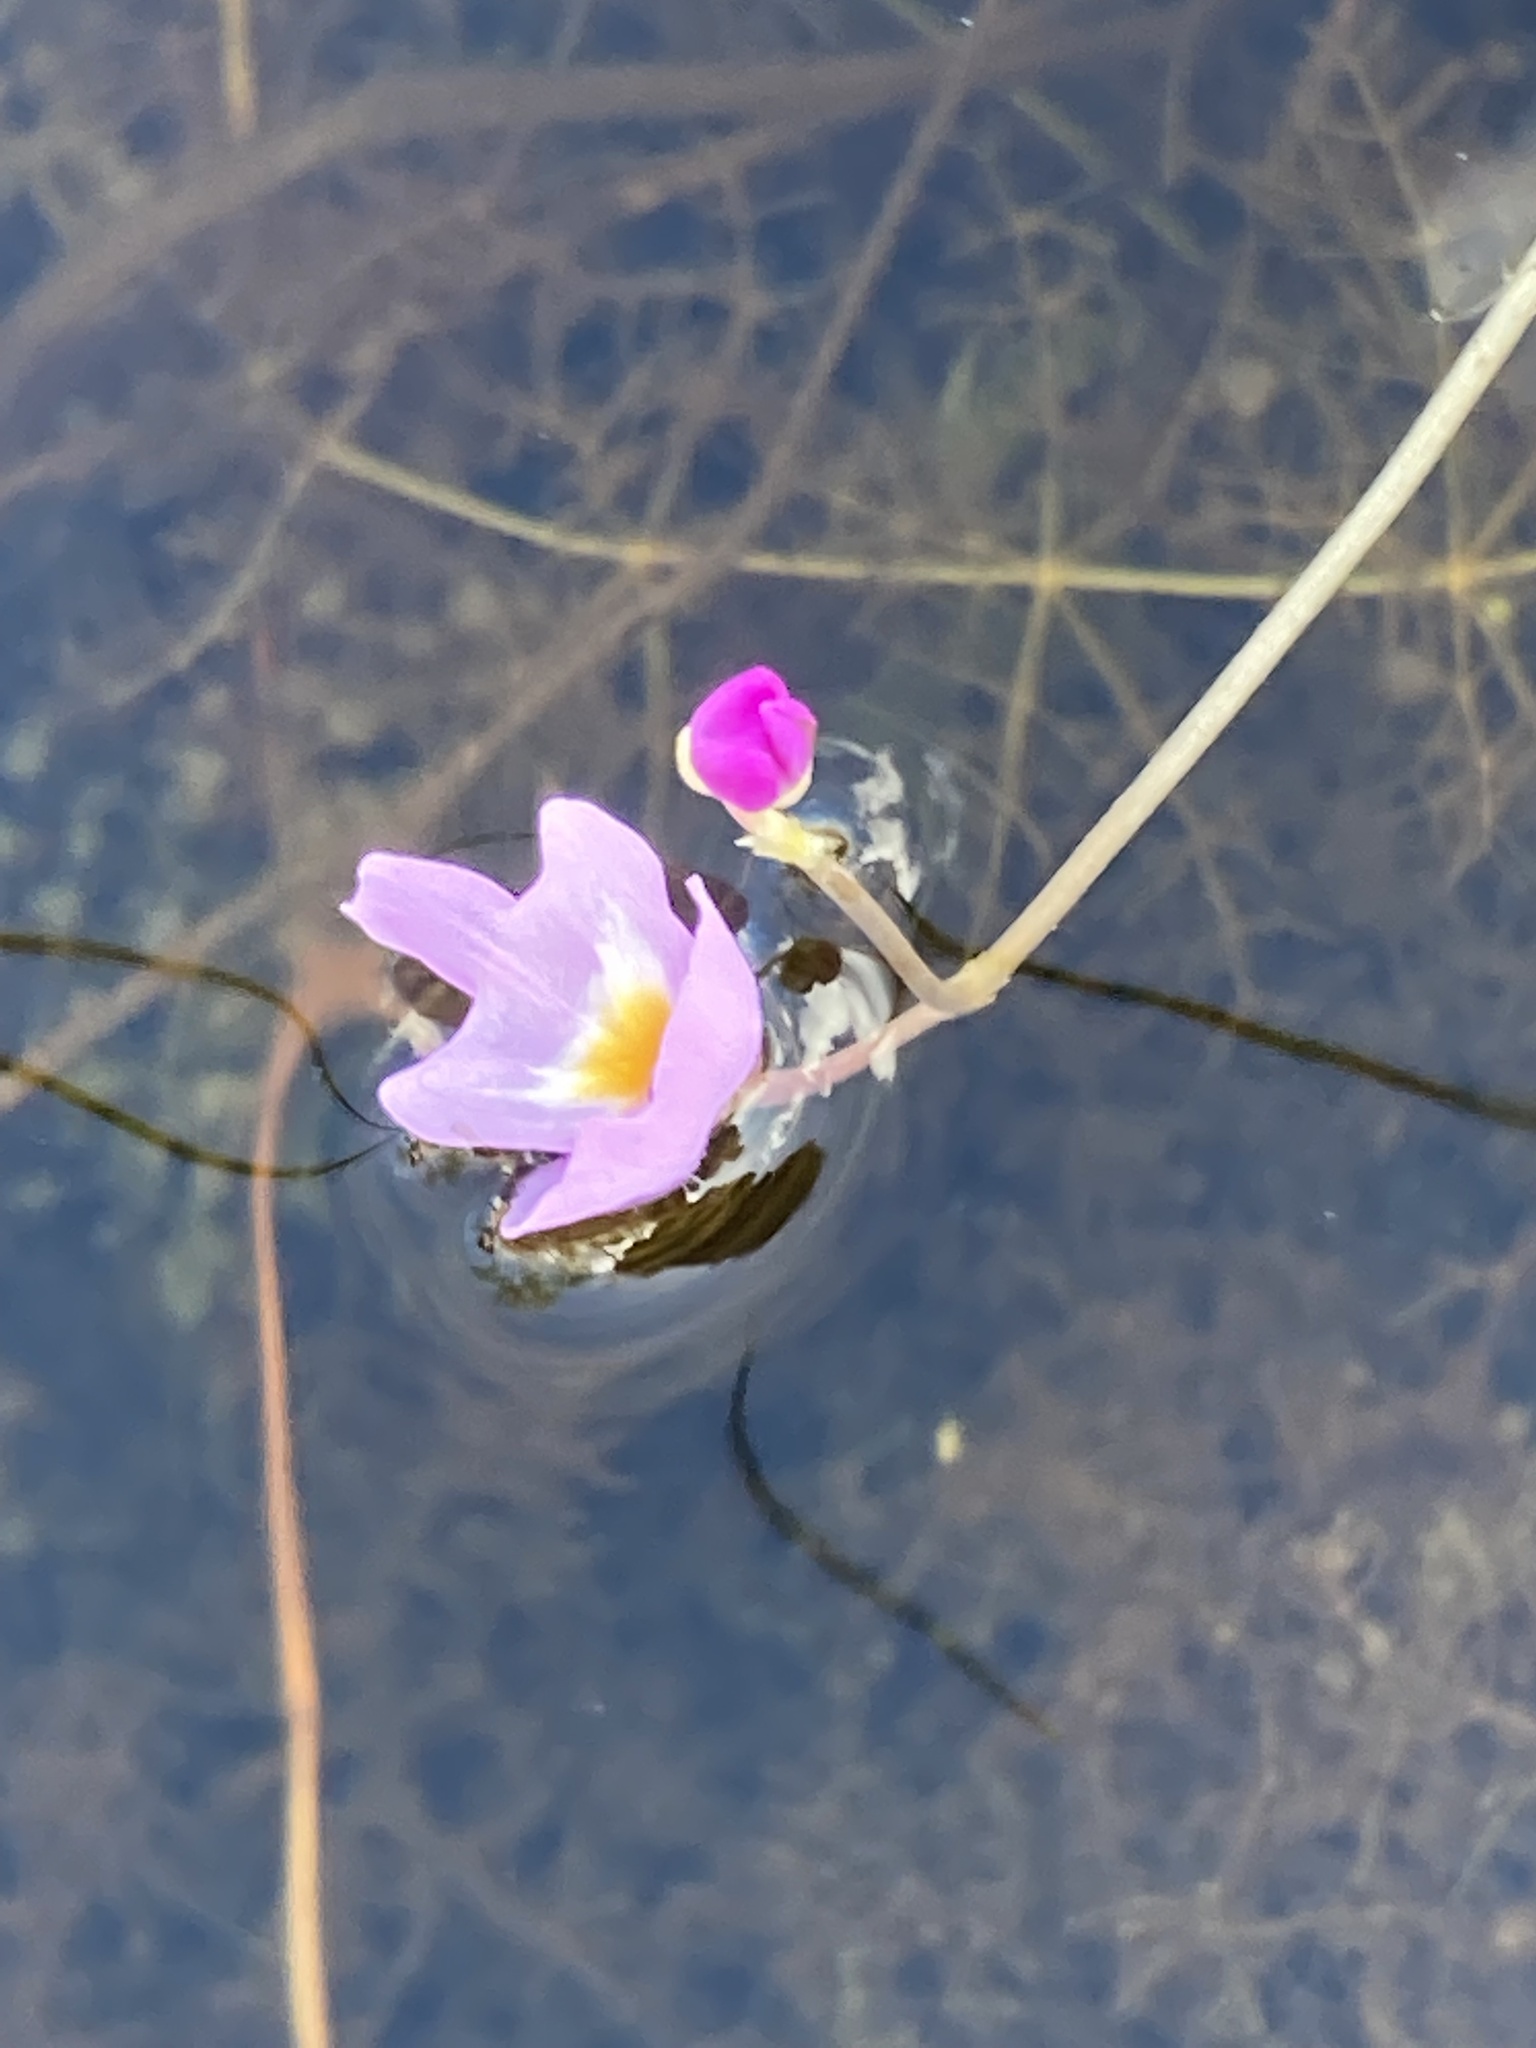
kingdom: Plantae
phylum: Tracheophyta
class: Magnoliopsida
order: Lamiales
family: Lentibulariaceae
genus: Utricularia
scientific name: Utricularia purpurea
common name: Eastern purple bladderwort
